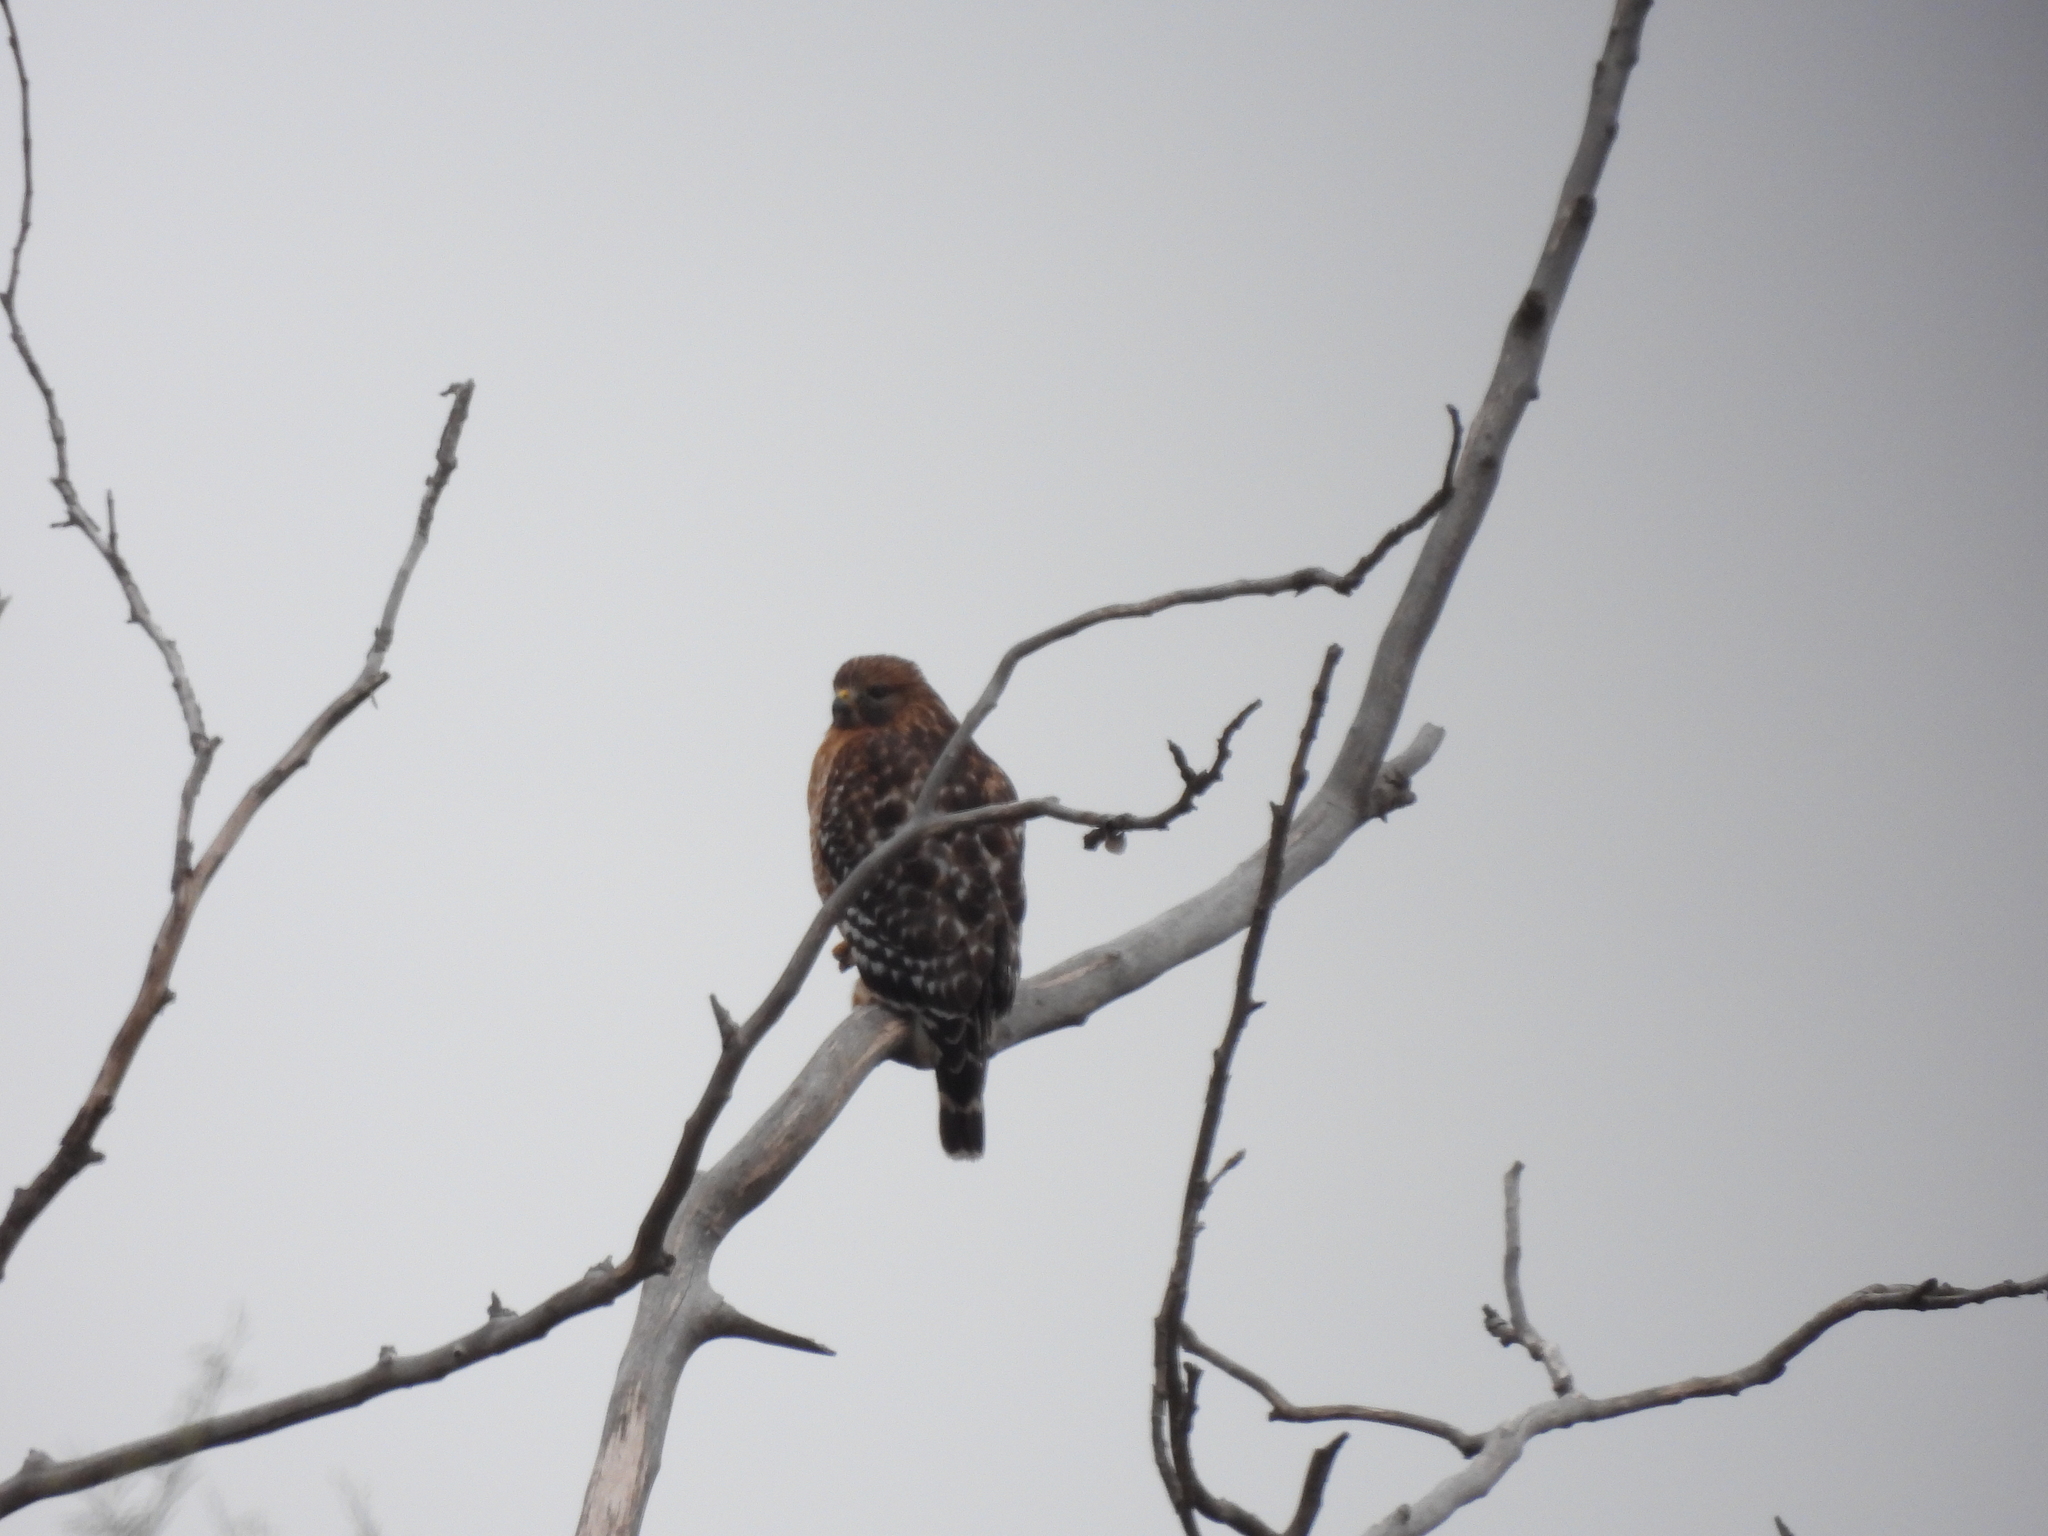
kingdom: Animalia
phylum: Chordata
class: Aves
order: Accipitriformes
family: Accipitridae
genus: Buteo
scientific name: Buteo lineatus
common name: Red-shouldered hawk
